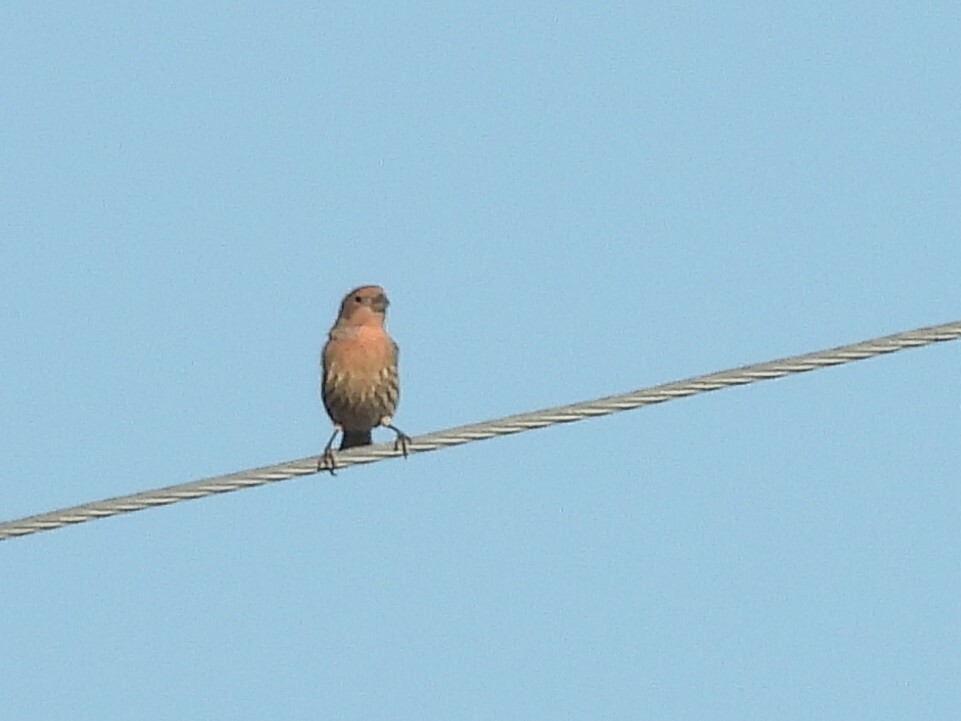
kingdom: Animalia
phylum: Chordata
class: Aves
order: Passeriformes
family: Fringillidae
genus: Haemorhous
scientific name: Haemorhous mexicanus
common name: House finch
